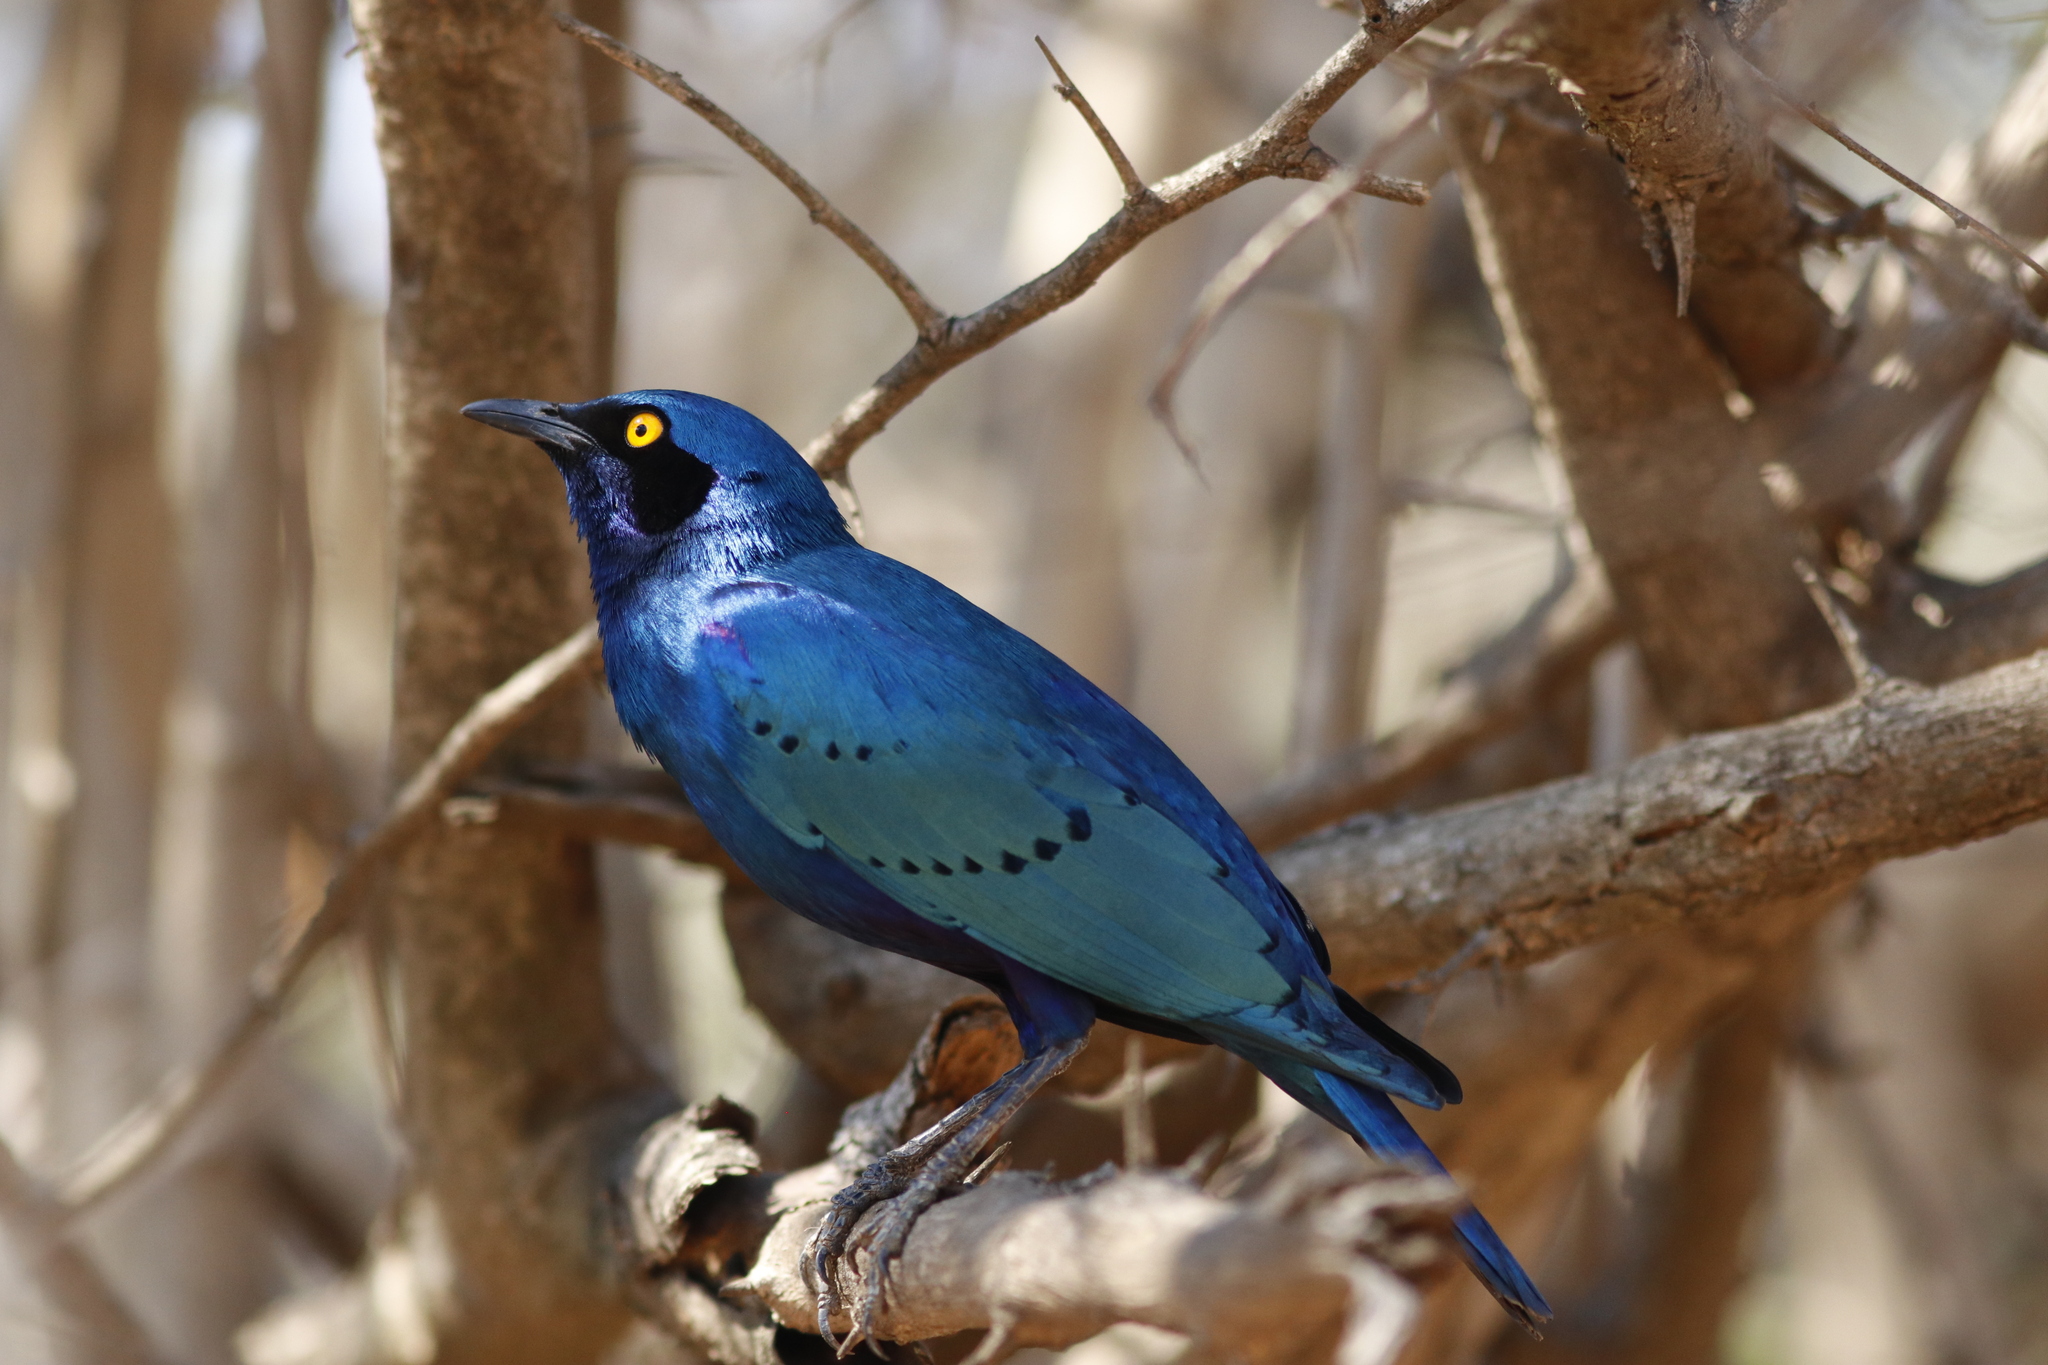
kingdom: Animalia
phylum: Chordata
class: Aves
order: Passeriformes
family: Sturnidae
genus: Lamprotornis
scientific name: Lamprotornis chalybaeus
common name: Greater blue-eared starling
